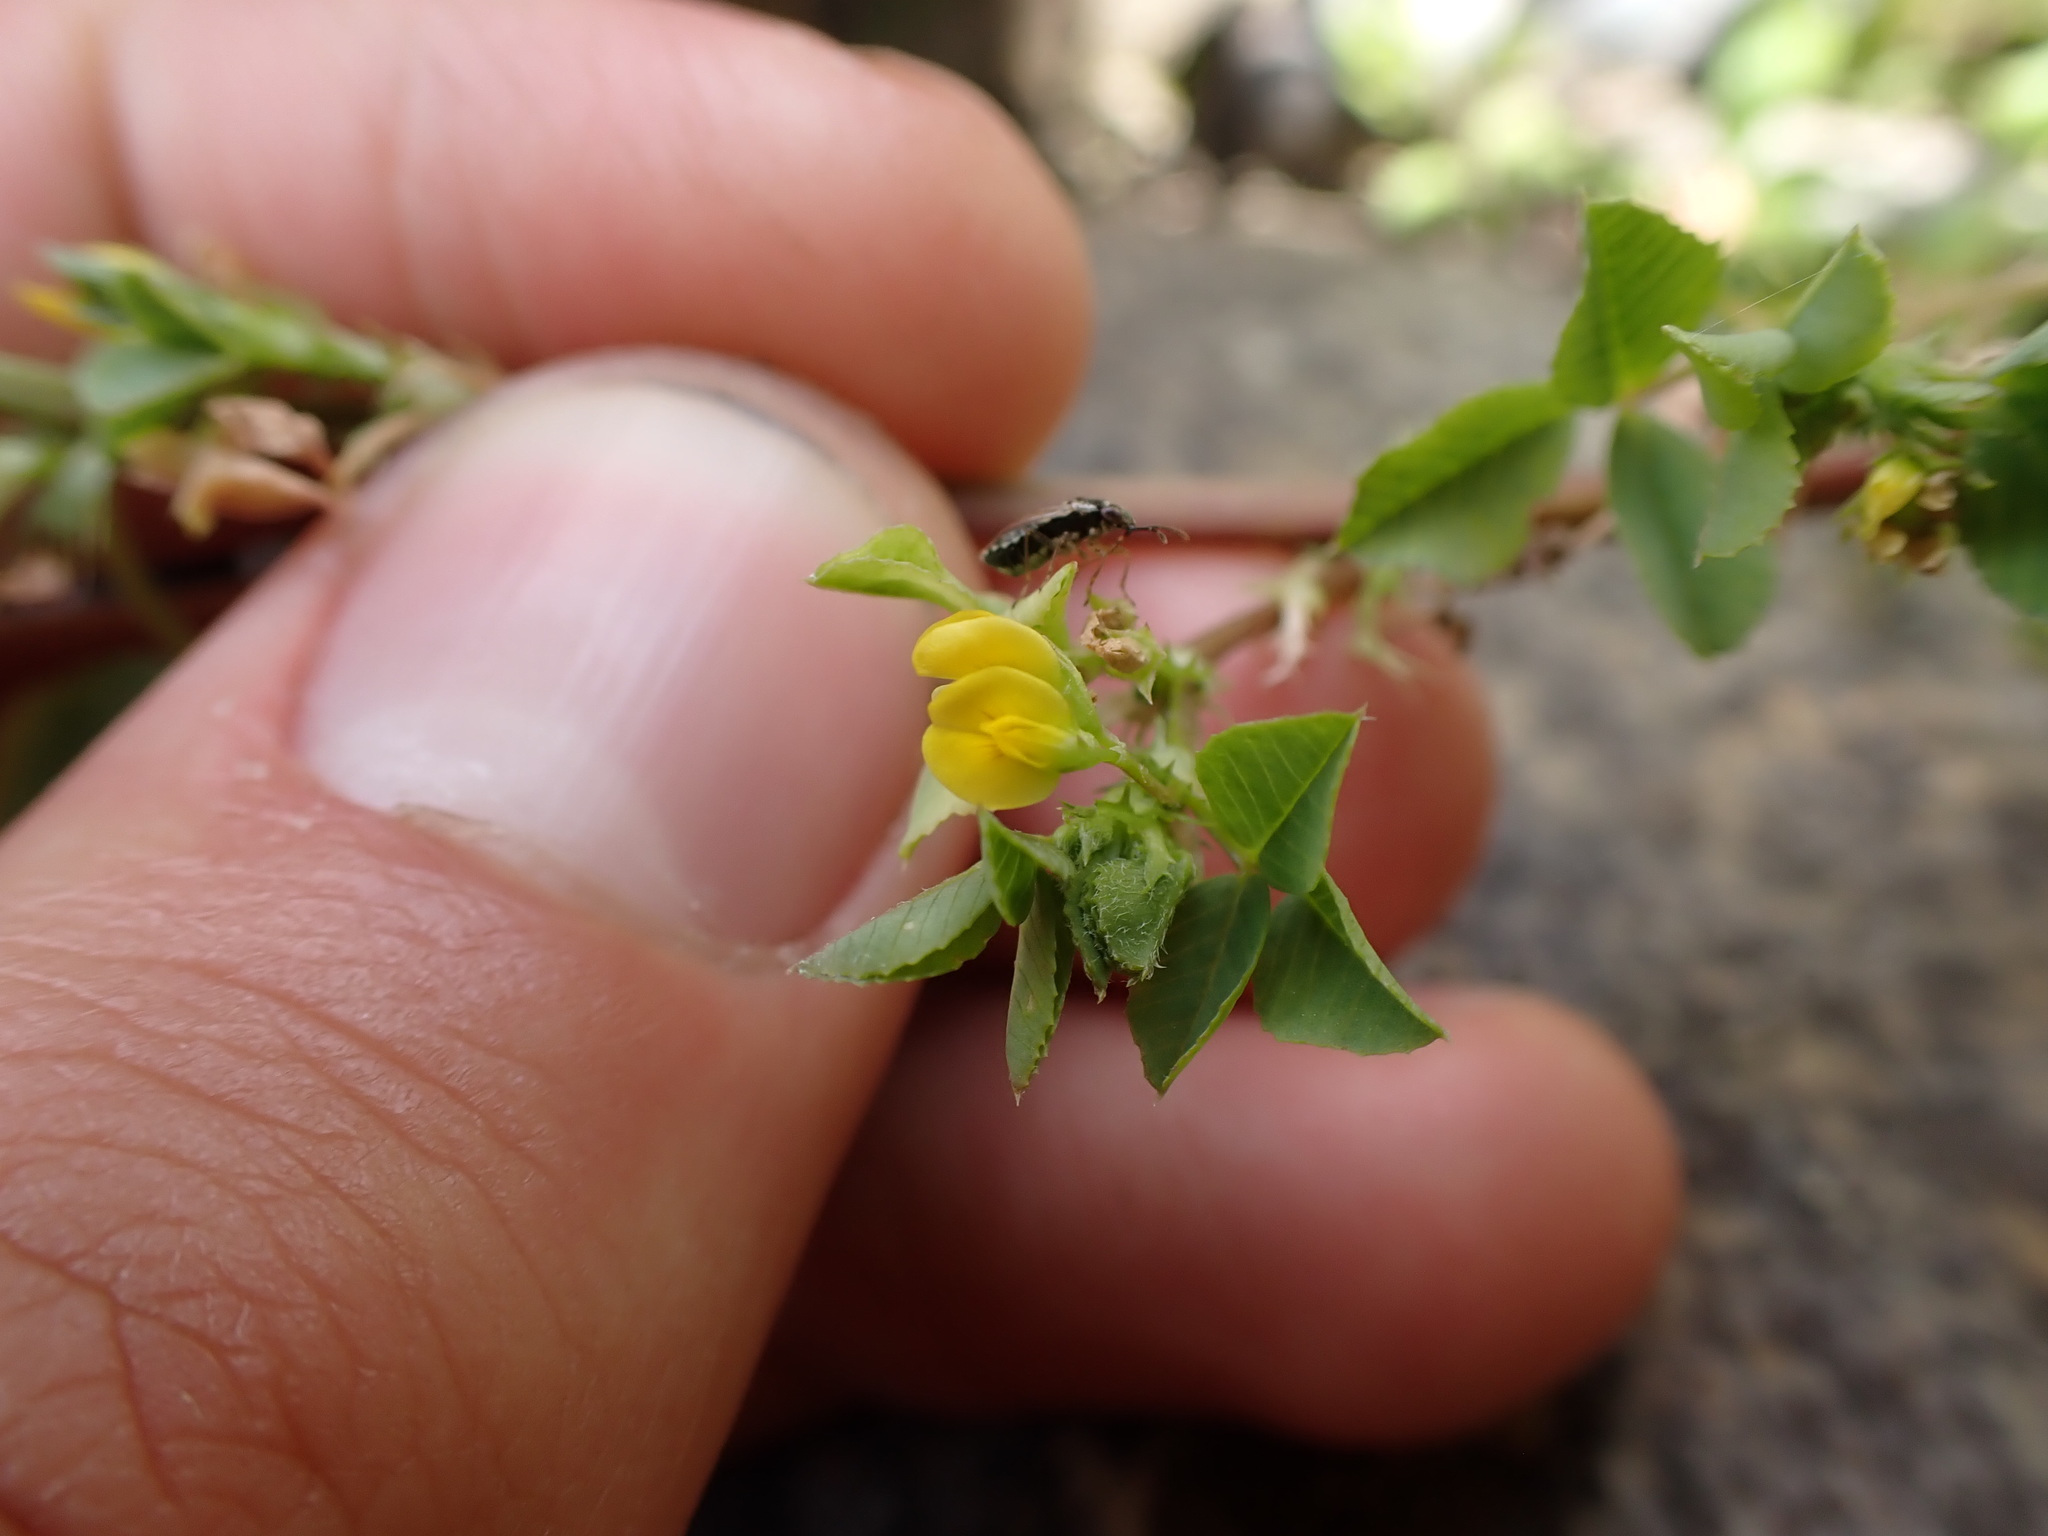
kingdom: Plantae
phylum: Tracheophyta
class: Magnoliopsida
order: Fabales
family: Fabaceae
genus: Medicago
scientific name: Medicago polymorpha
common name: Burclover
